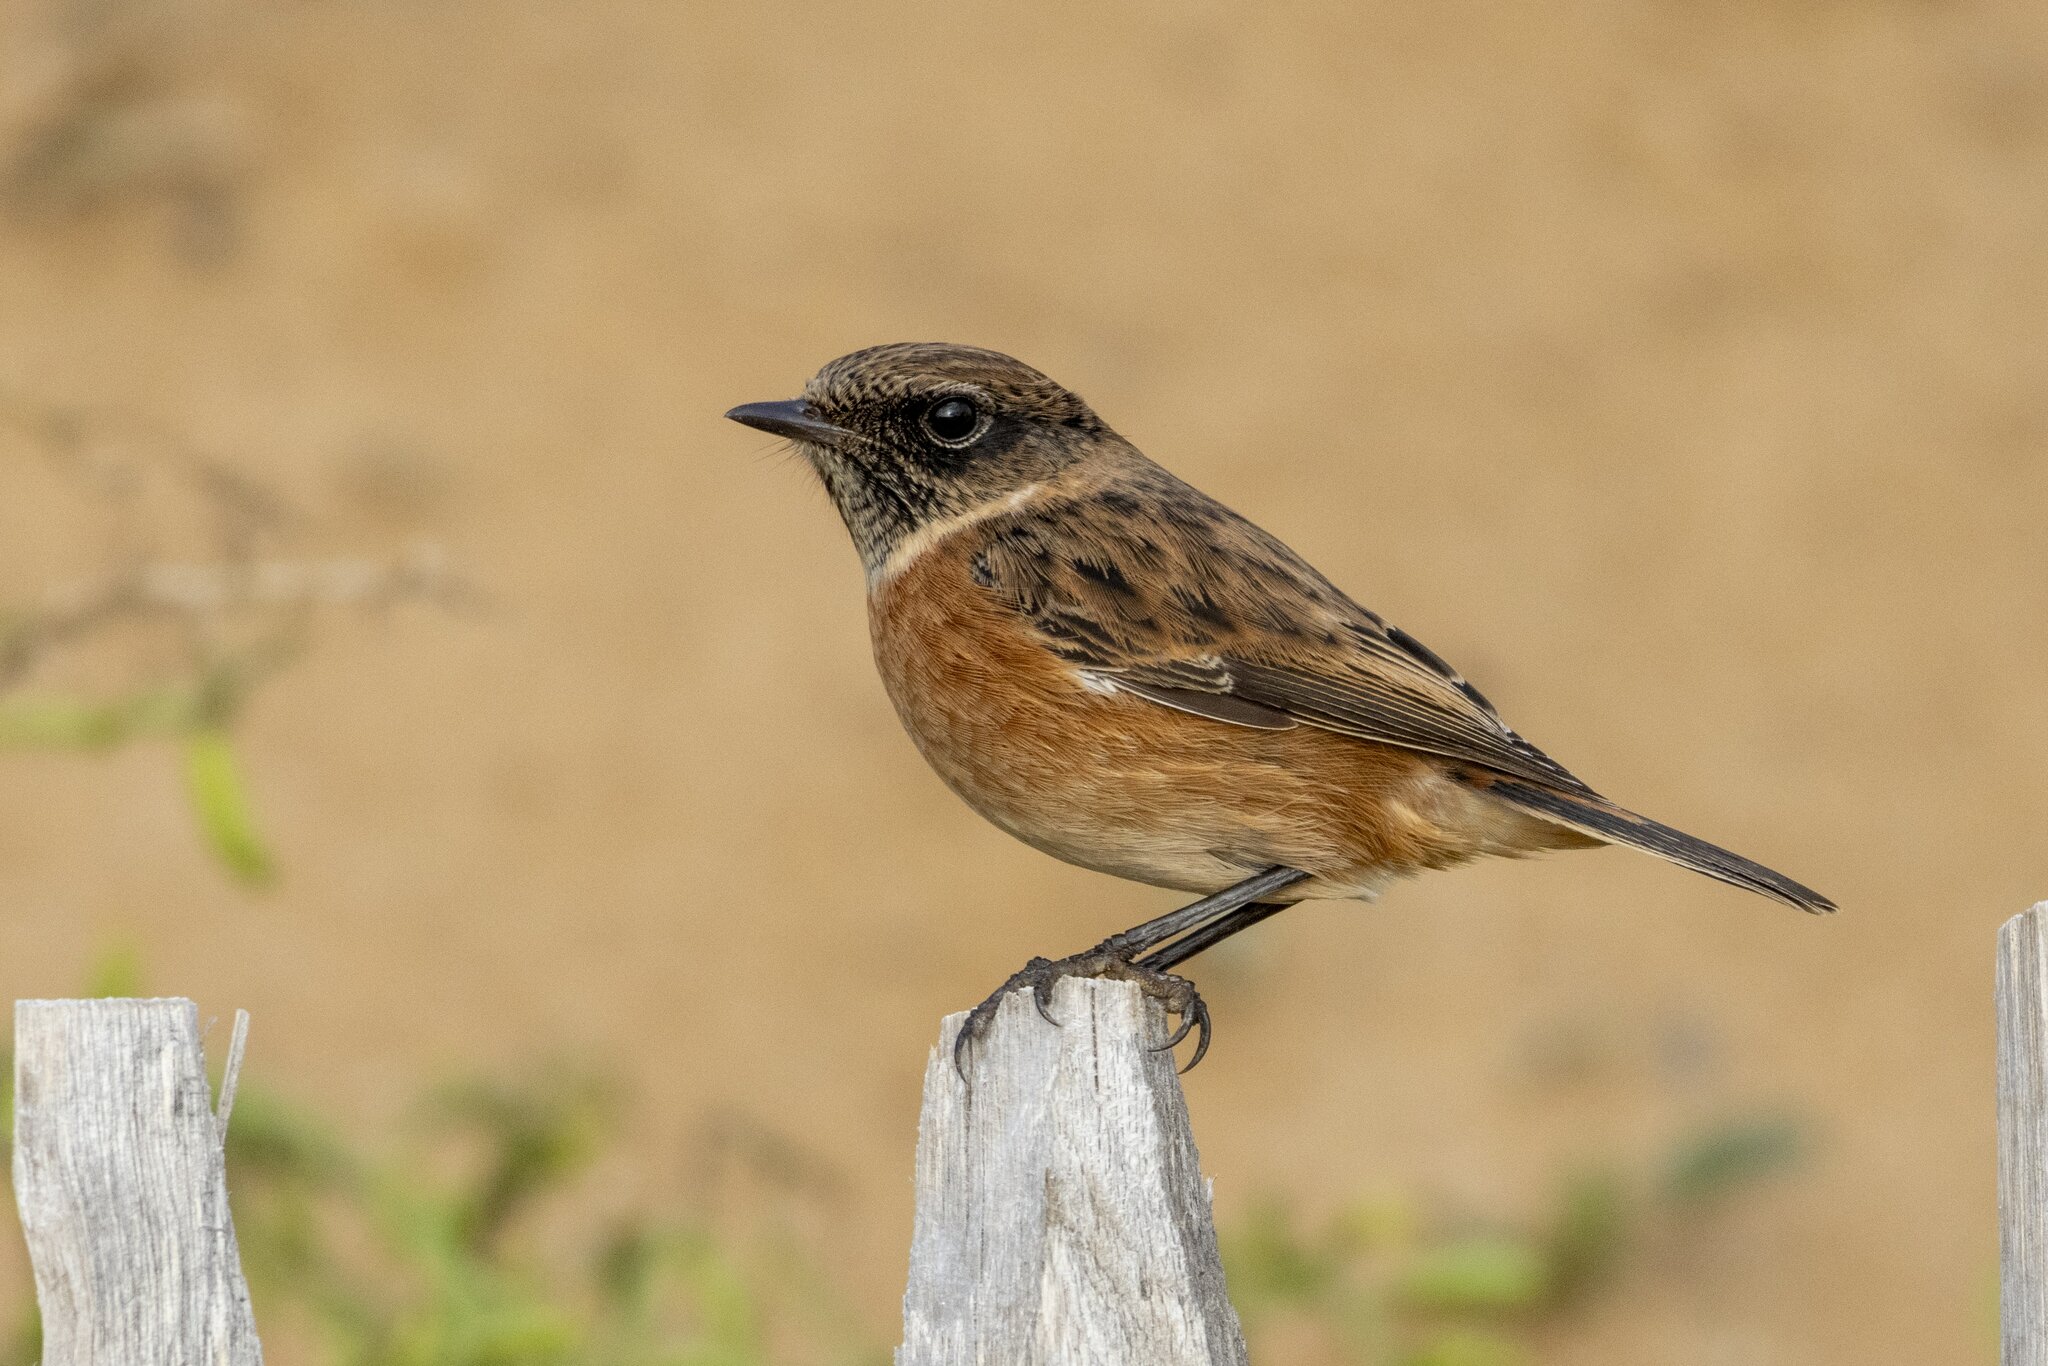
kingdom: Animalia
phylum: Chordata
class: Aves
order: Passeriformes
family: Muscicapidae
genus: Saxicola
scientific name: Saxicola rubicola
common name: European stonechat
